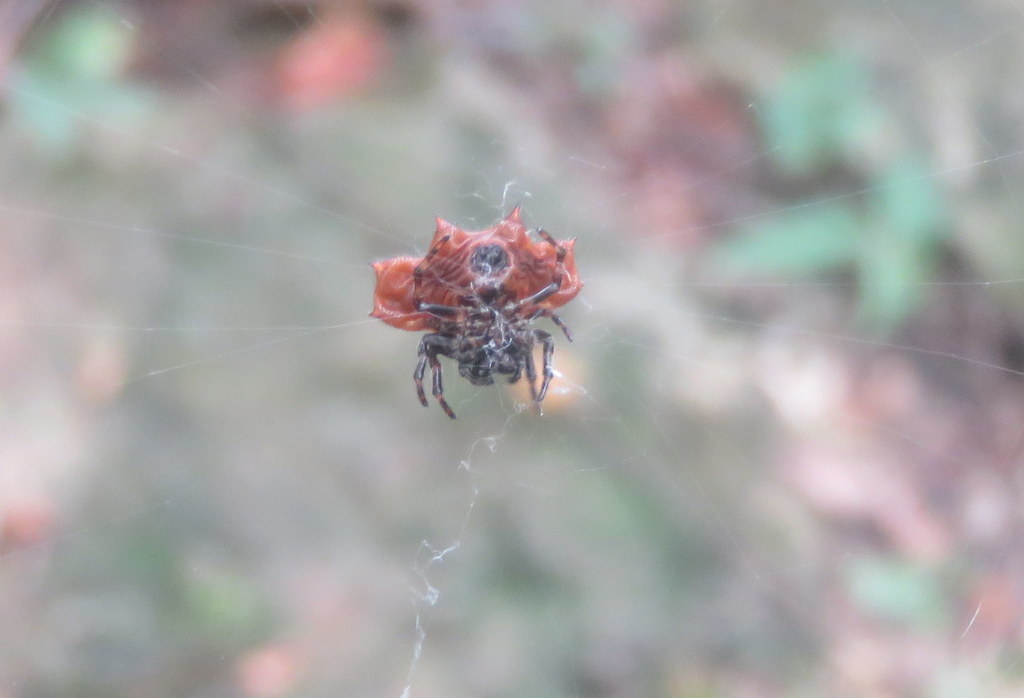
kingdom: Animalia
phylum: Arthropoda
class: Arachnida
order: Araneae
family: Araneidae
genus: Gasteracantha
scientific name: Gasteracantha cancriformis
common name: Orb weavers
